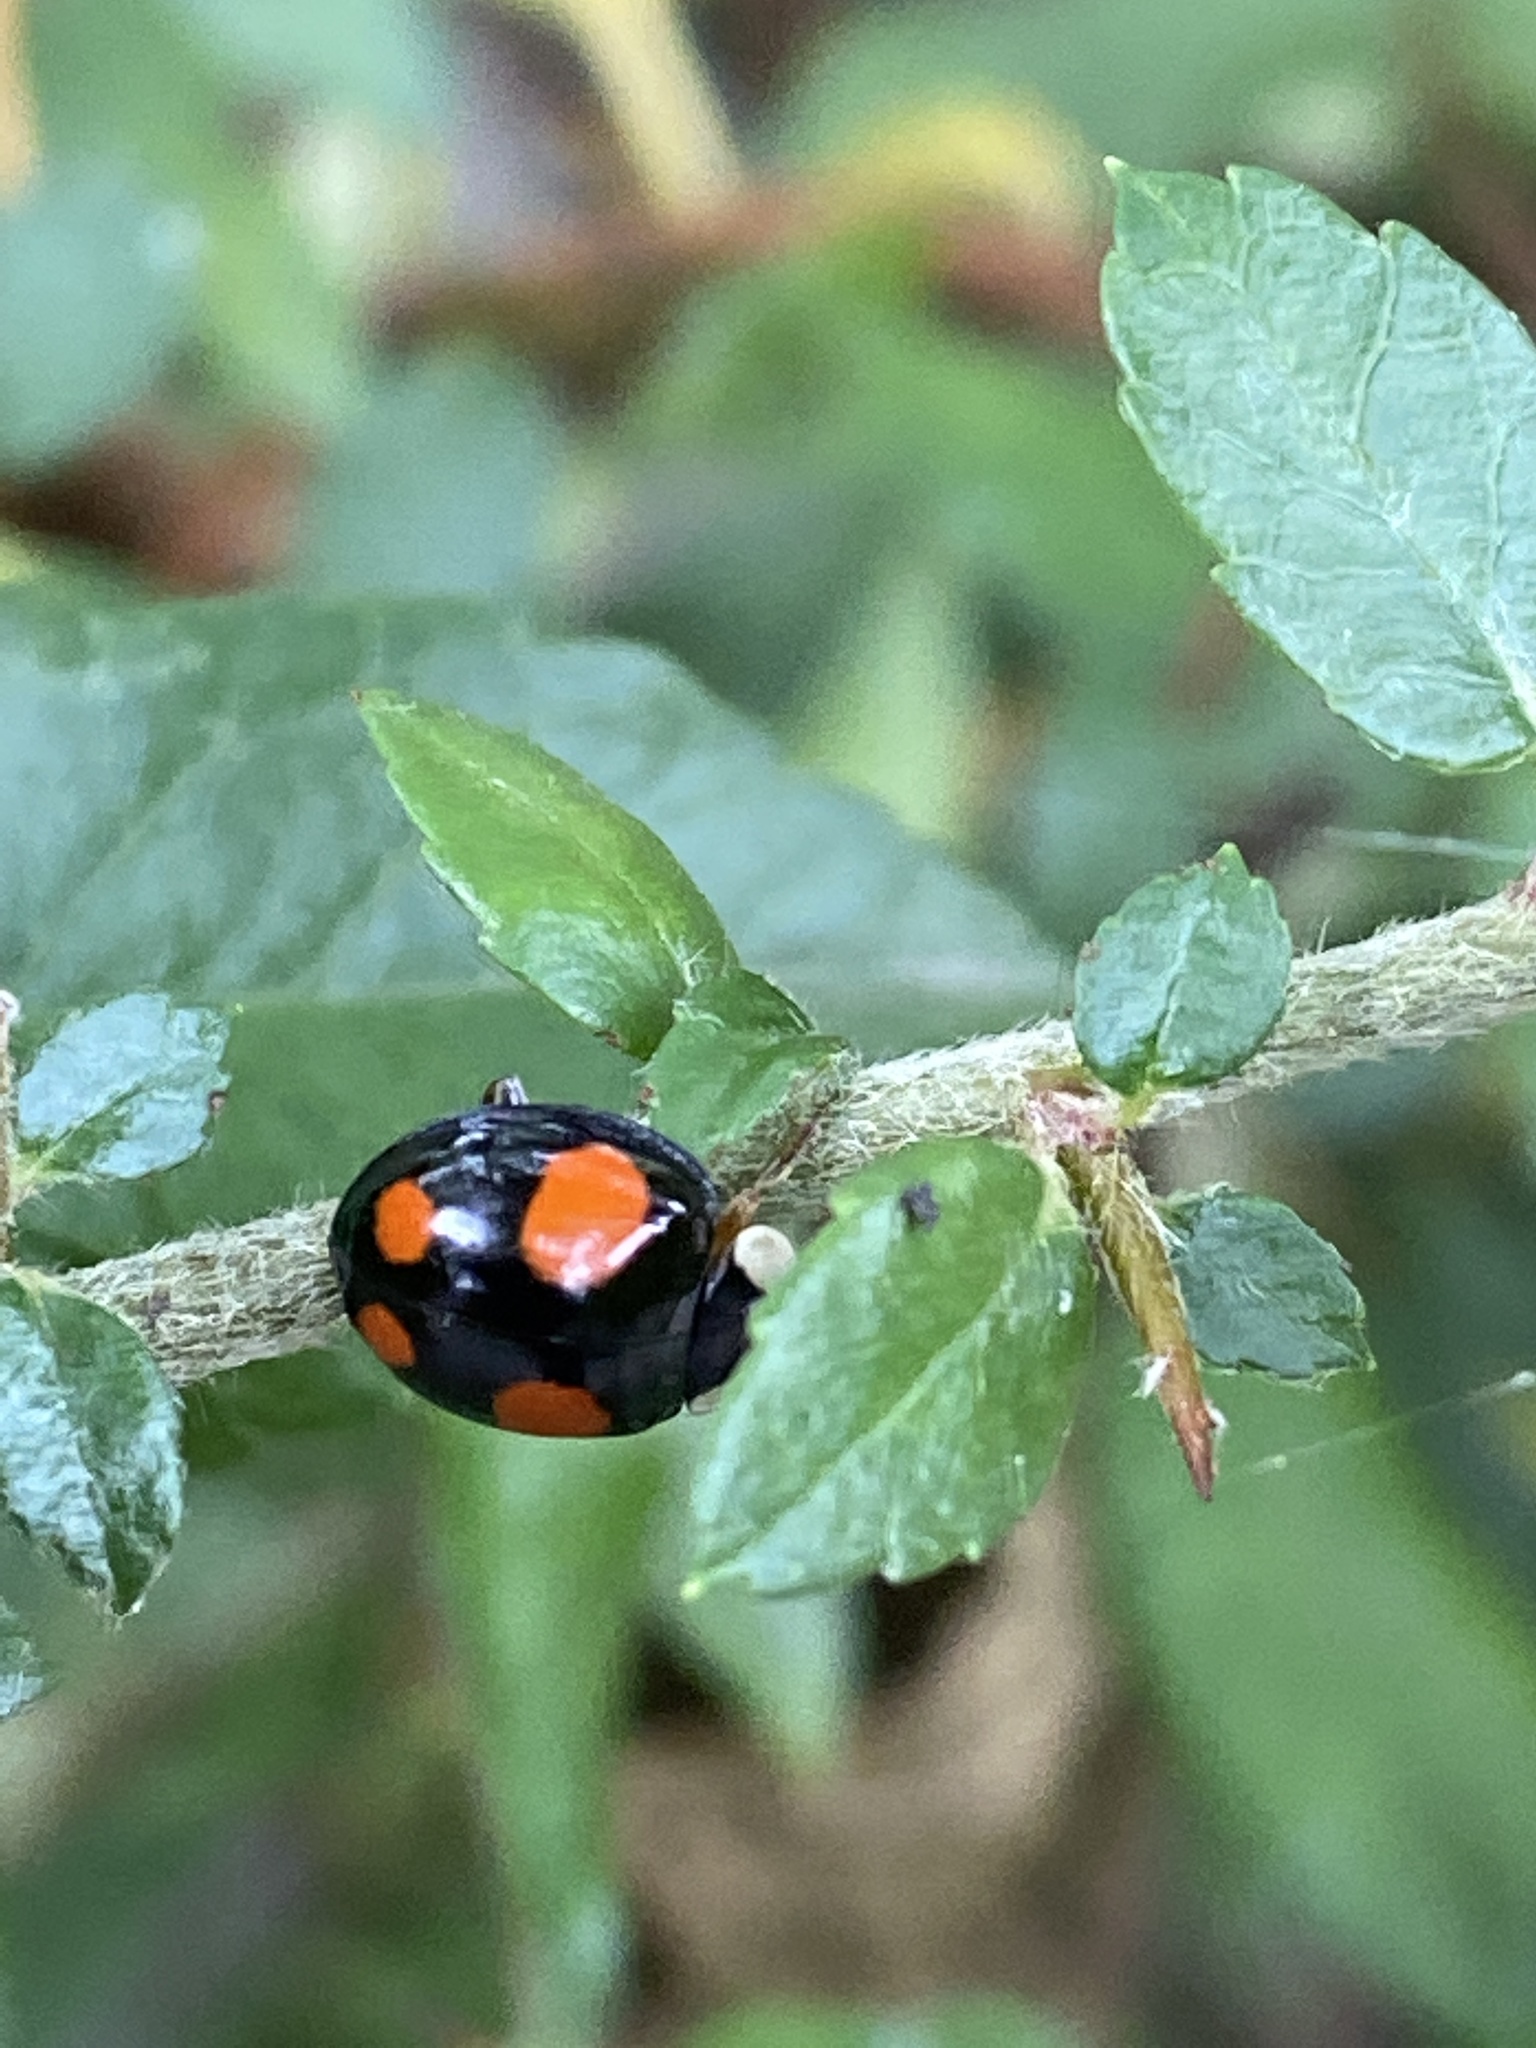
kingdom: Animalia
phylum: Arthropoda
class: Insecta
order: Coleoptera
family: Coccinellidae
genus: Harmonia
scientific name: Harmonia axyridis
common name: Harlequin ladybird
